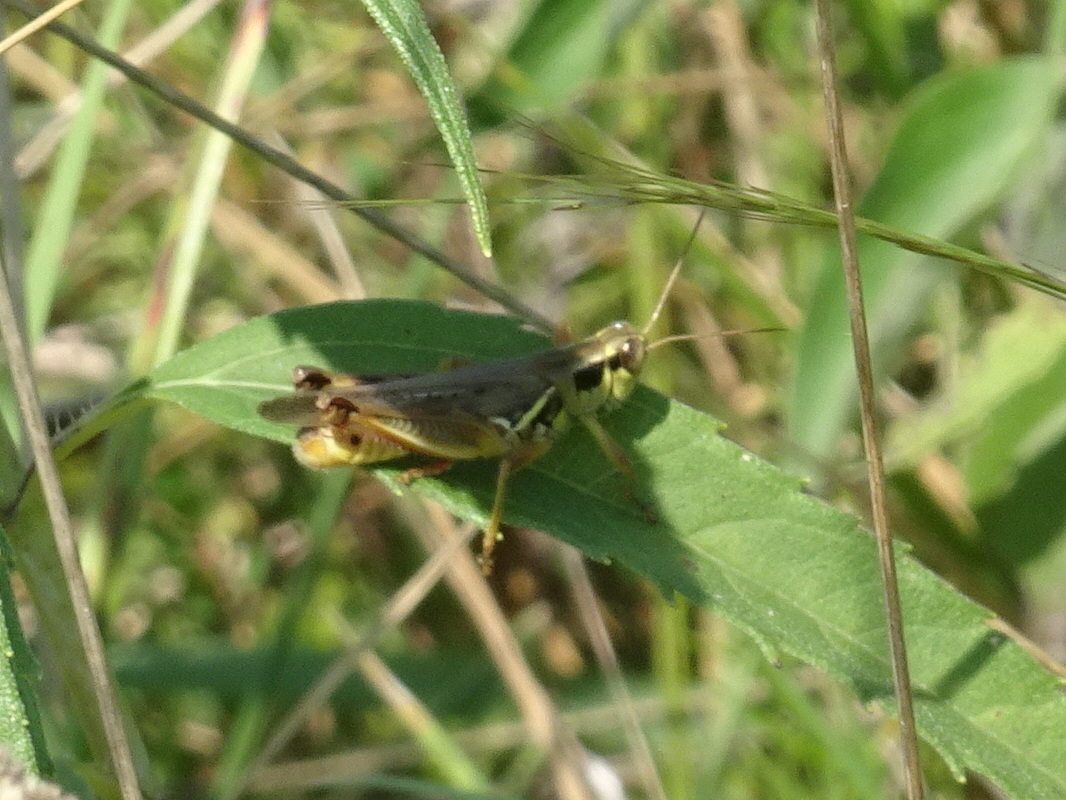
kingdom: Animalia
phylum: Arthropoda
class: Insecta
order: Orthoptera
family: Acrididae
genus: Melanoplus
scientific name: Melanoplus femurrubrum
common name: Red-legged grasshopper
